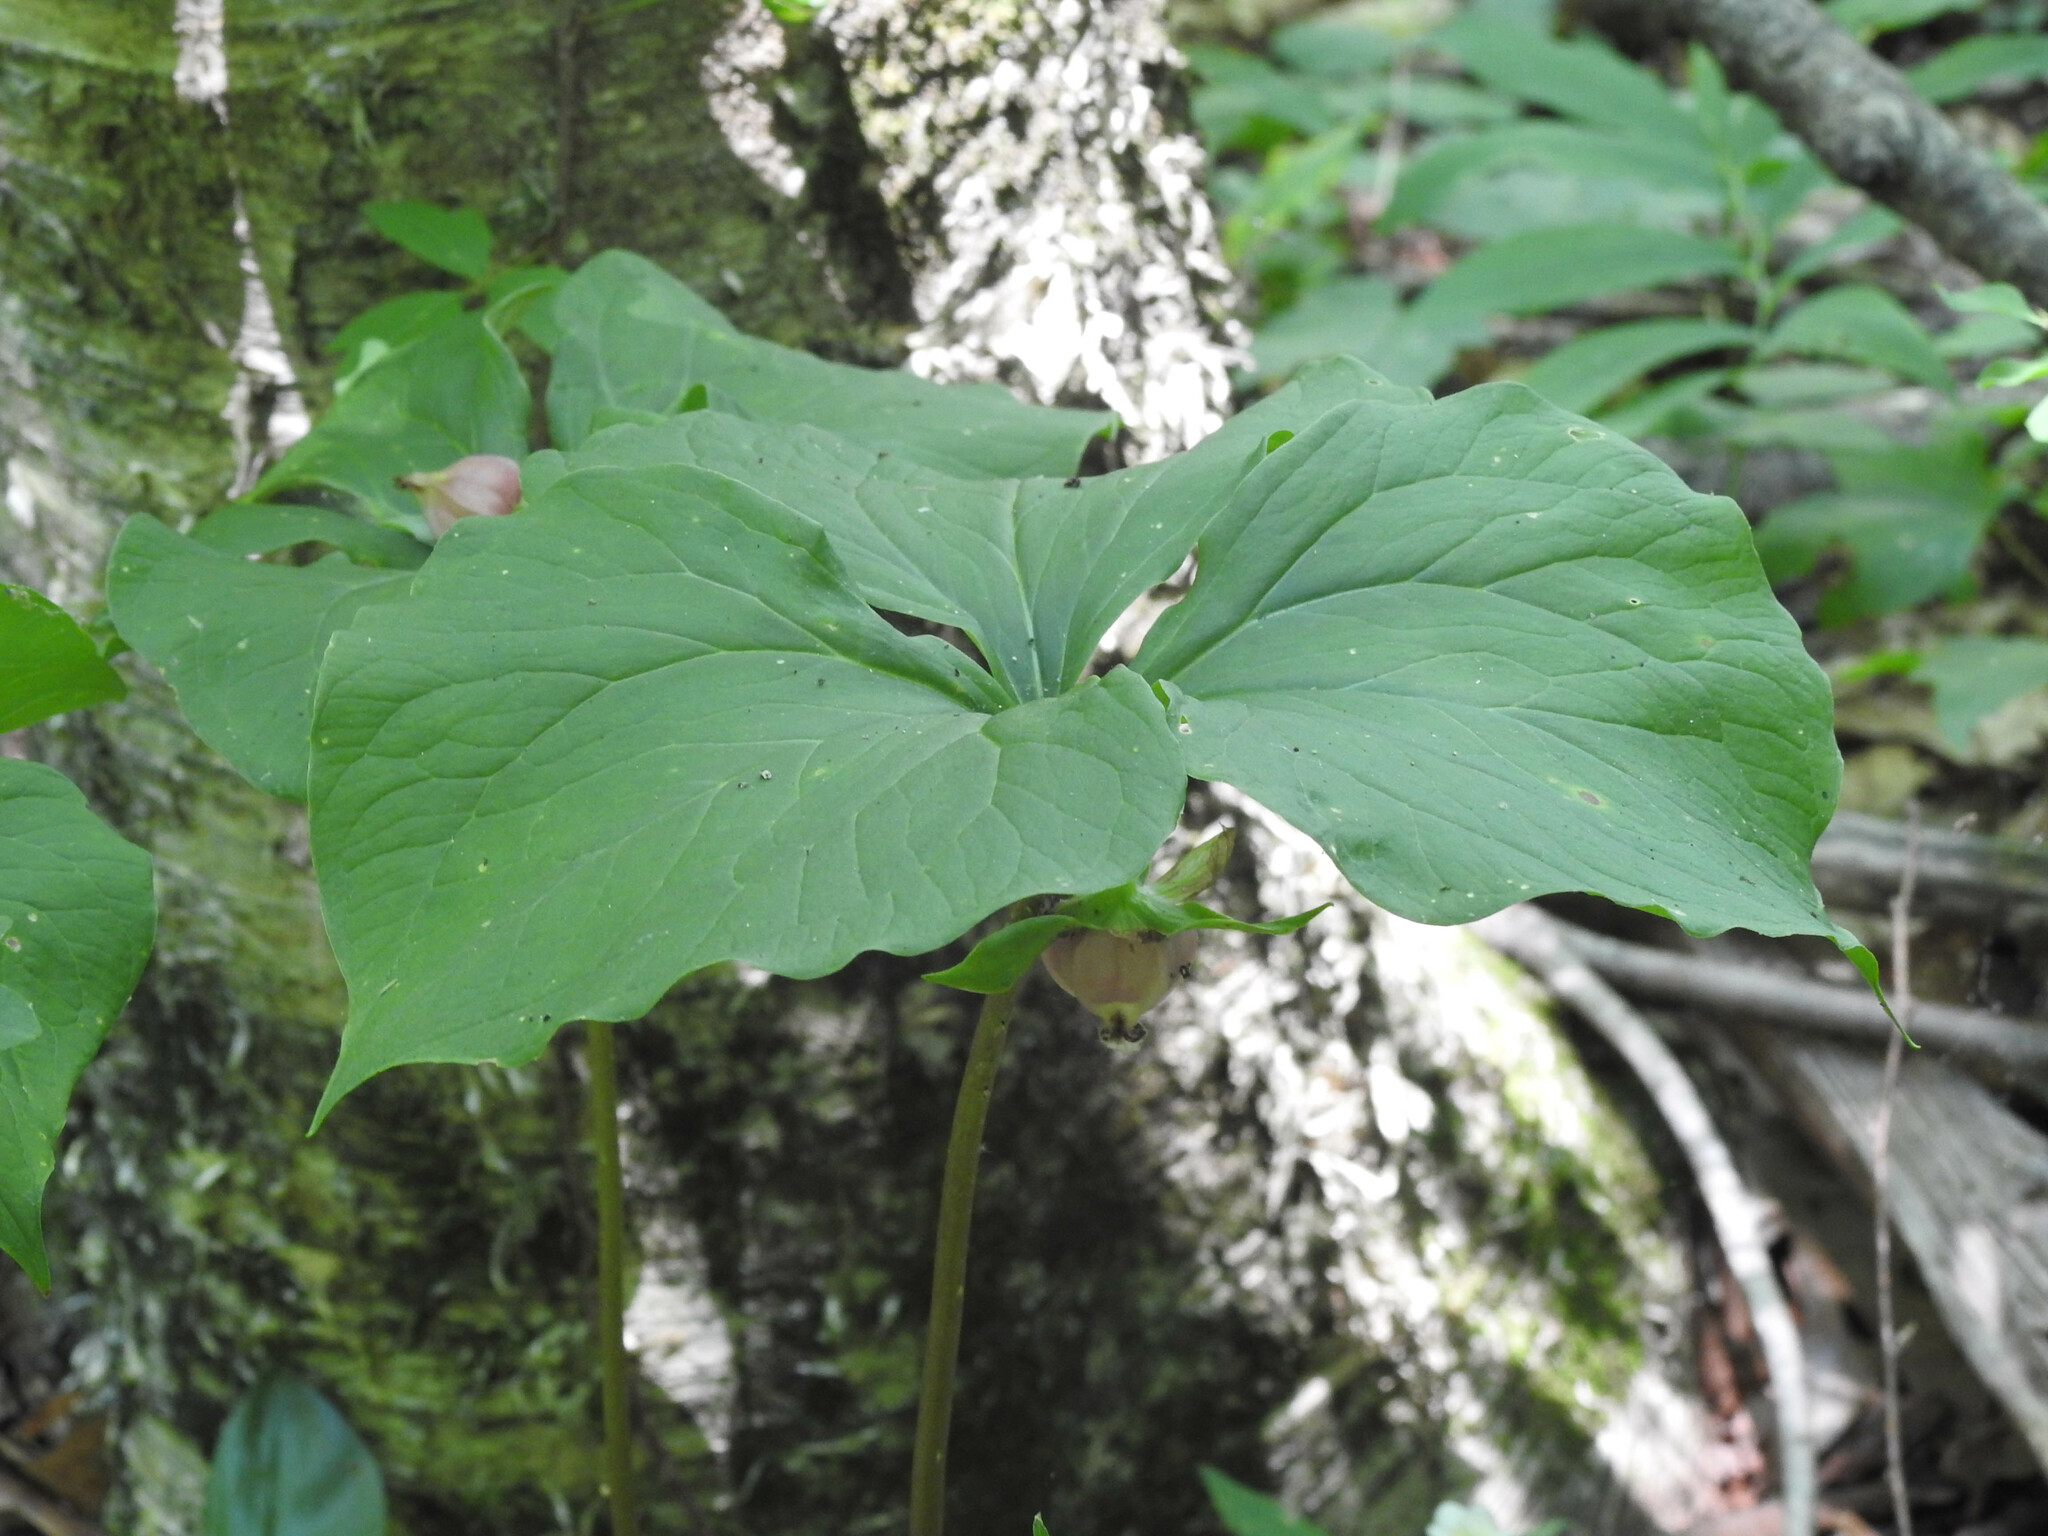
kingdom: Plantae
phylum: Tracheophyta
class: Liliopsida
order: Liliales
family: Melanthiaceae
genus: Trillium
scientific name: Trillium cernuum
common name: Nodding trillium
